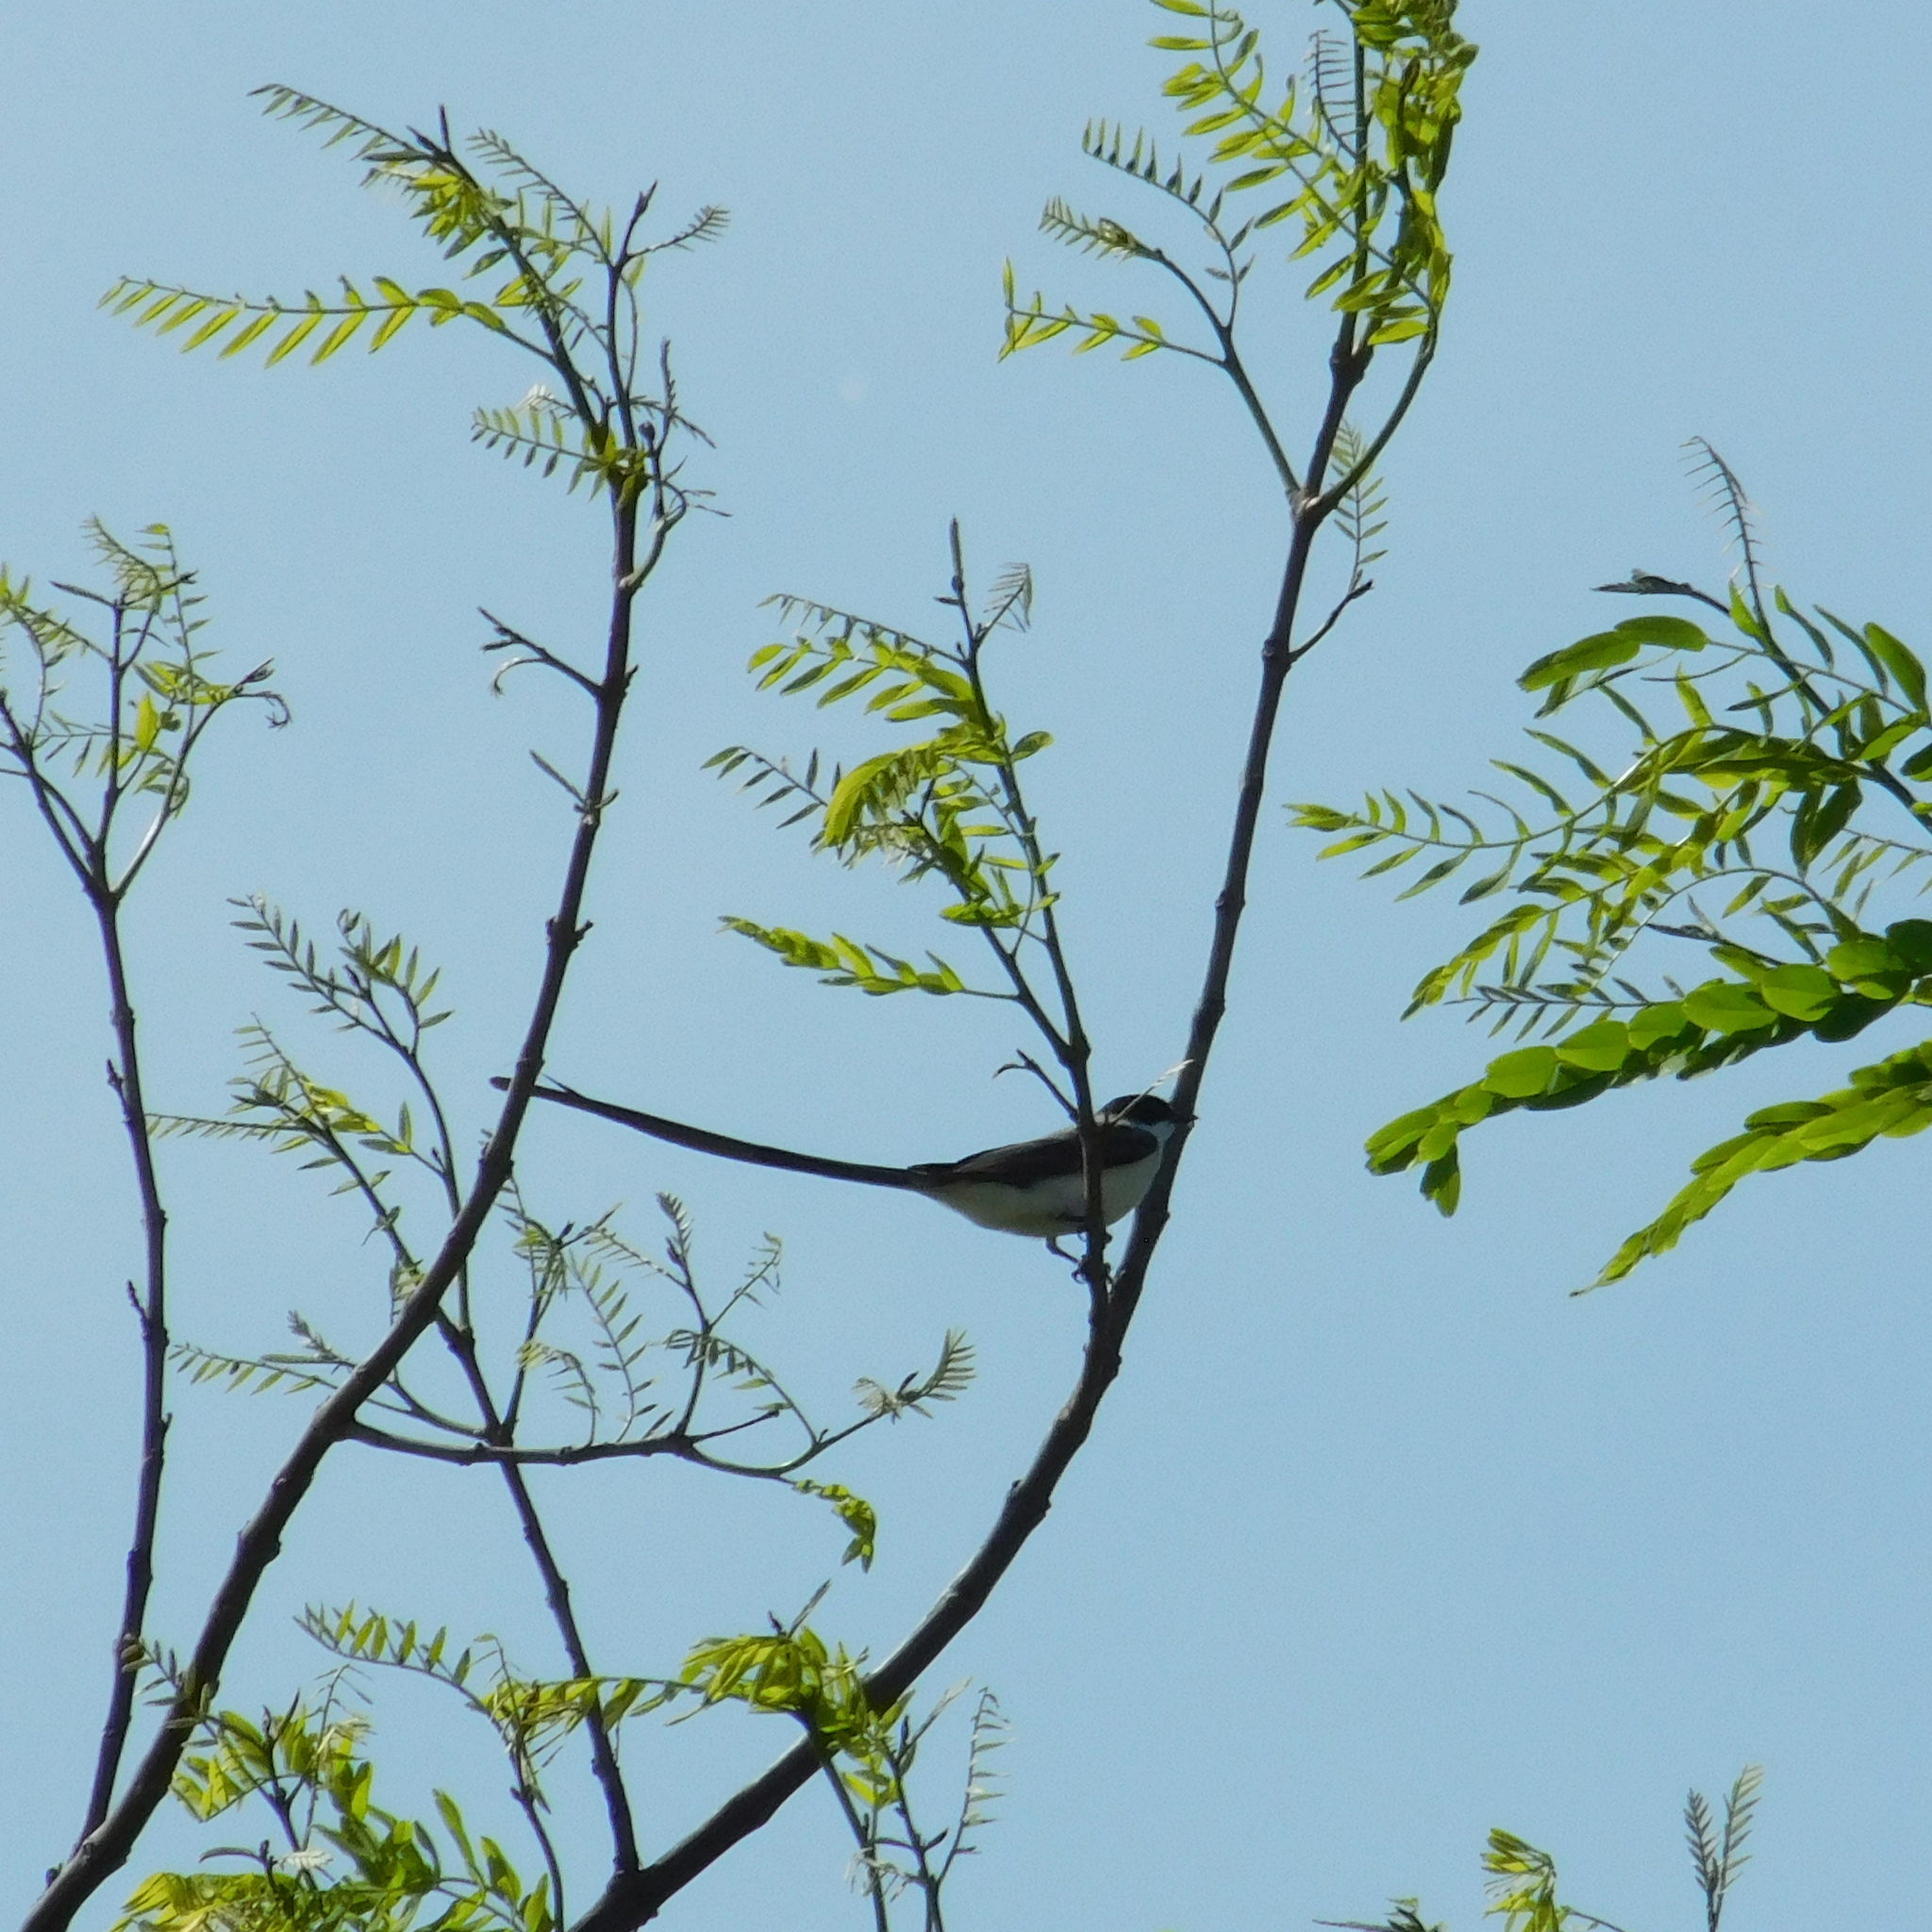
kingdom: Animalia
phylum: Chordata
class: Aves
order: Passeriformes
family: Tyrannidae
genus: Tyrannus
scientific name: Tyrannus savana
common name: Fork-tailed flycatcher
